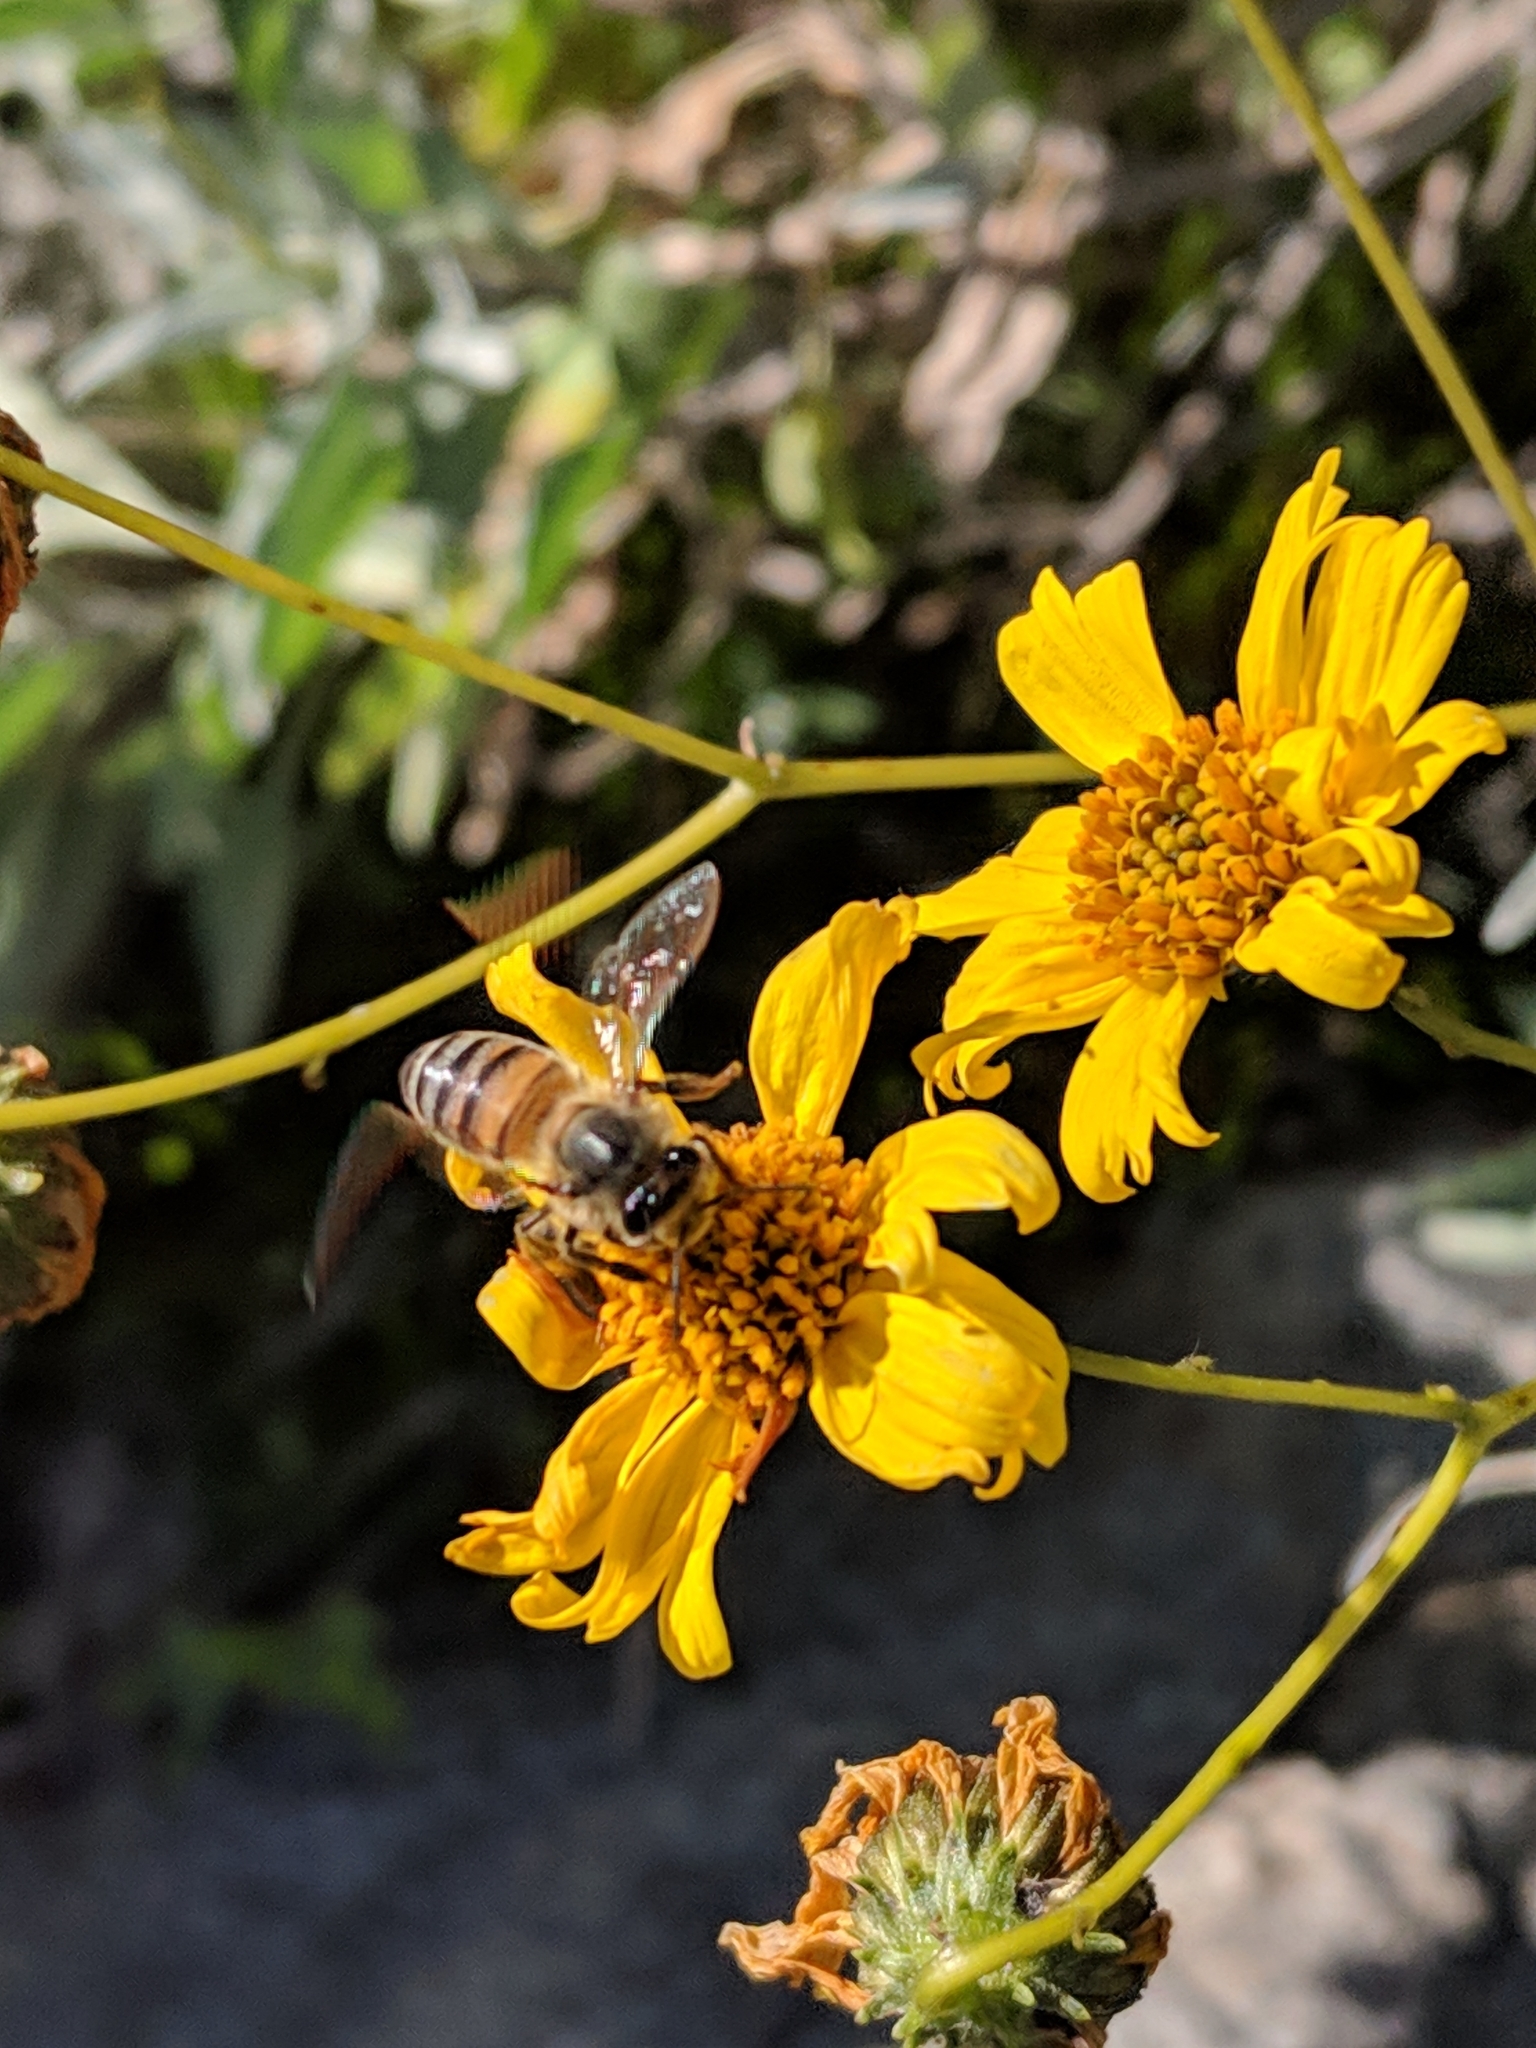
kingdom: Animalia
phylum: Arthropoda
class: Insecta
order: Hymenoptera
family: Apidae
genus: Apis
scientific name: Apis mellifera
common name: Honey bee
